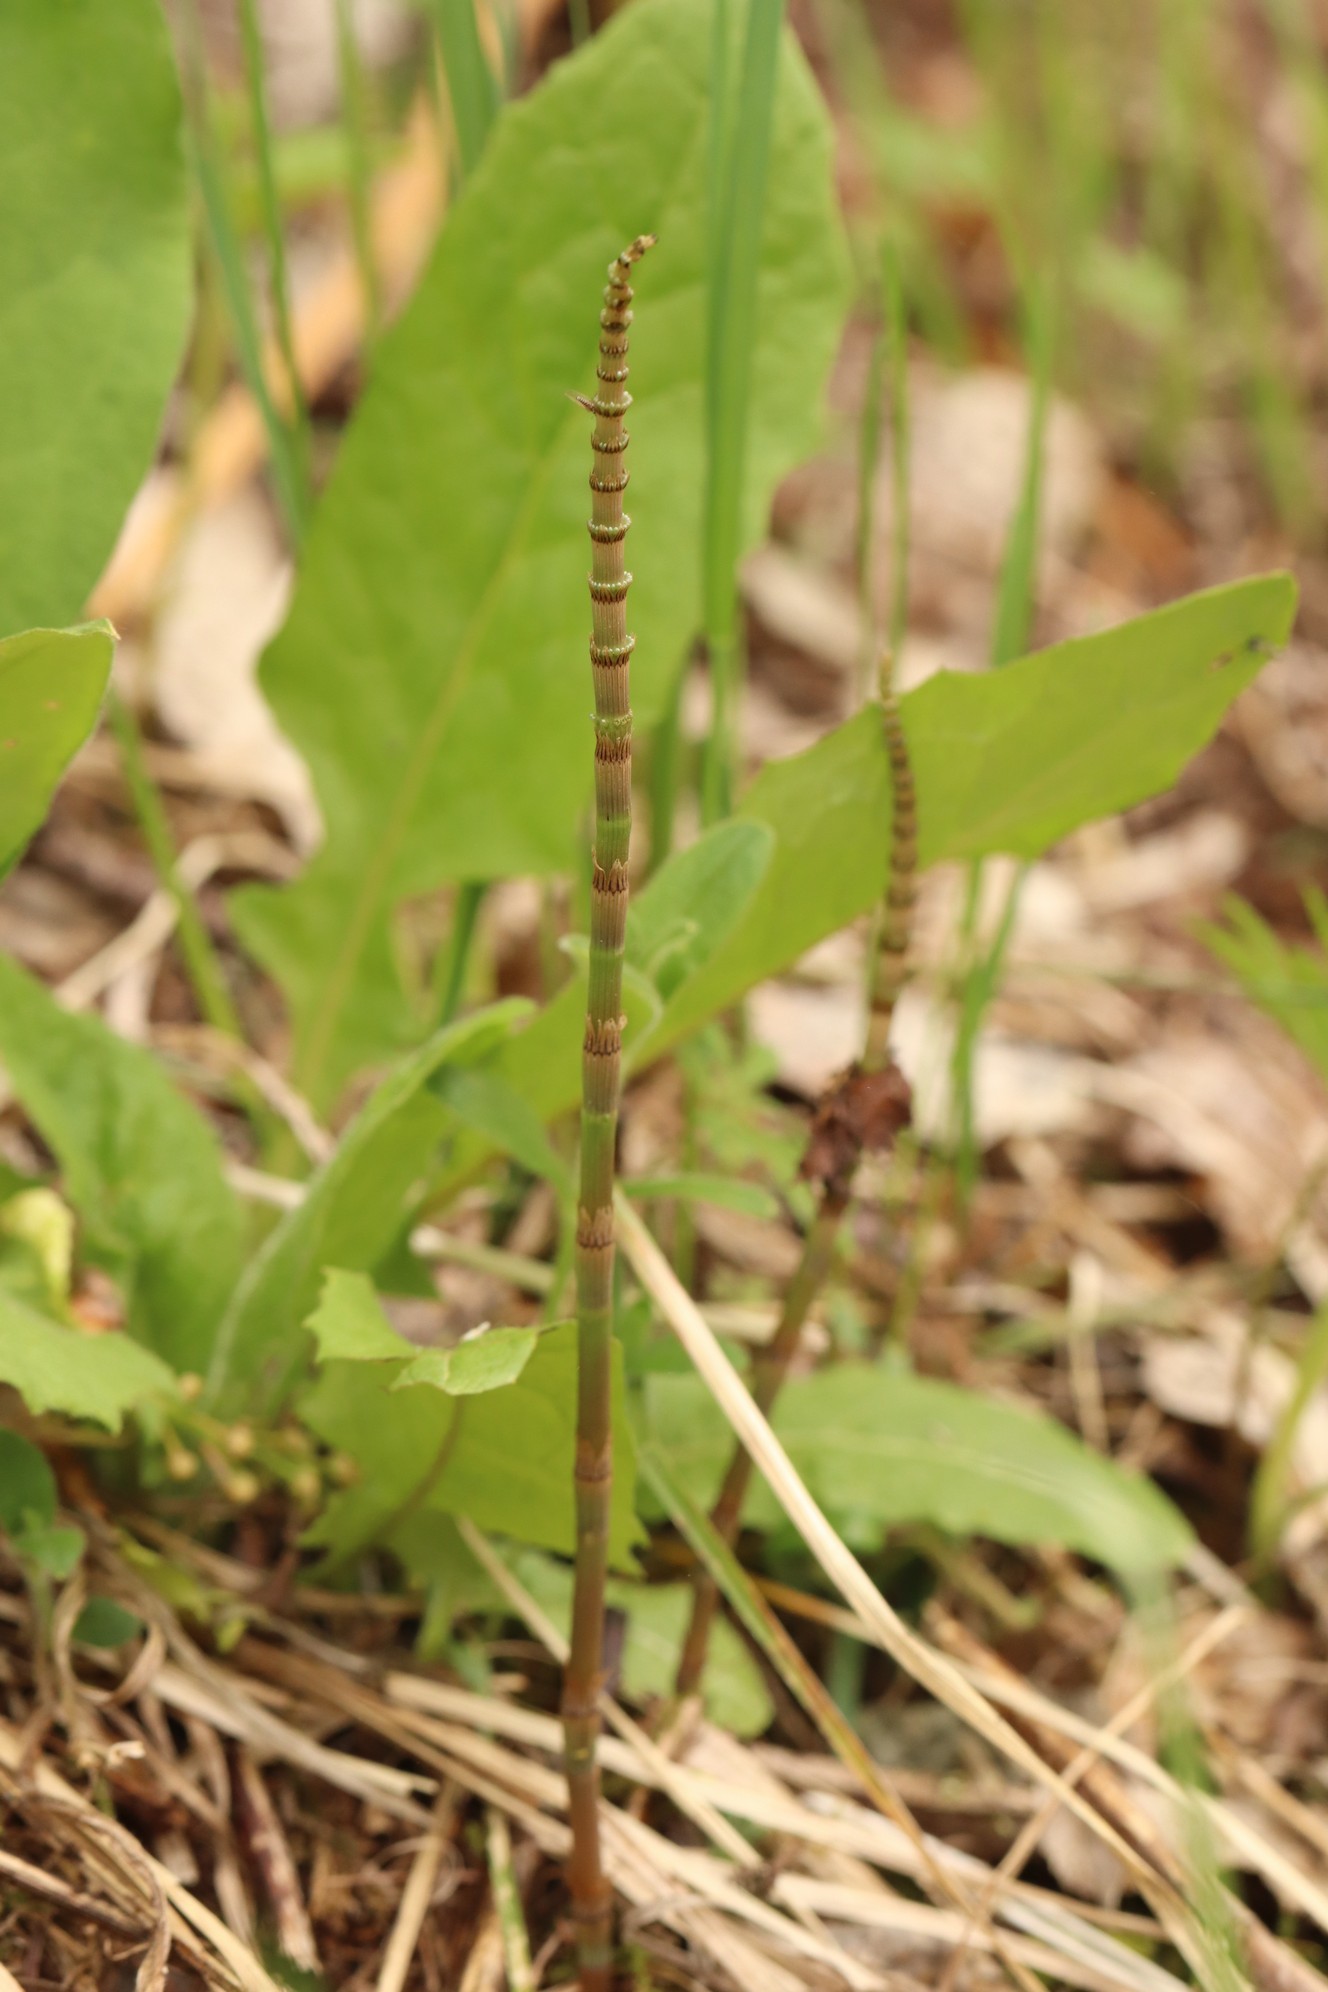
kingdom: Plantae
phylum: Tracheophyta
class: Polypodiopsida
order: Equisetales
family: Equisetaceae
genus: Equisetum
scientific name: Equisetum pratense
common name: Meadow horsetail
